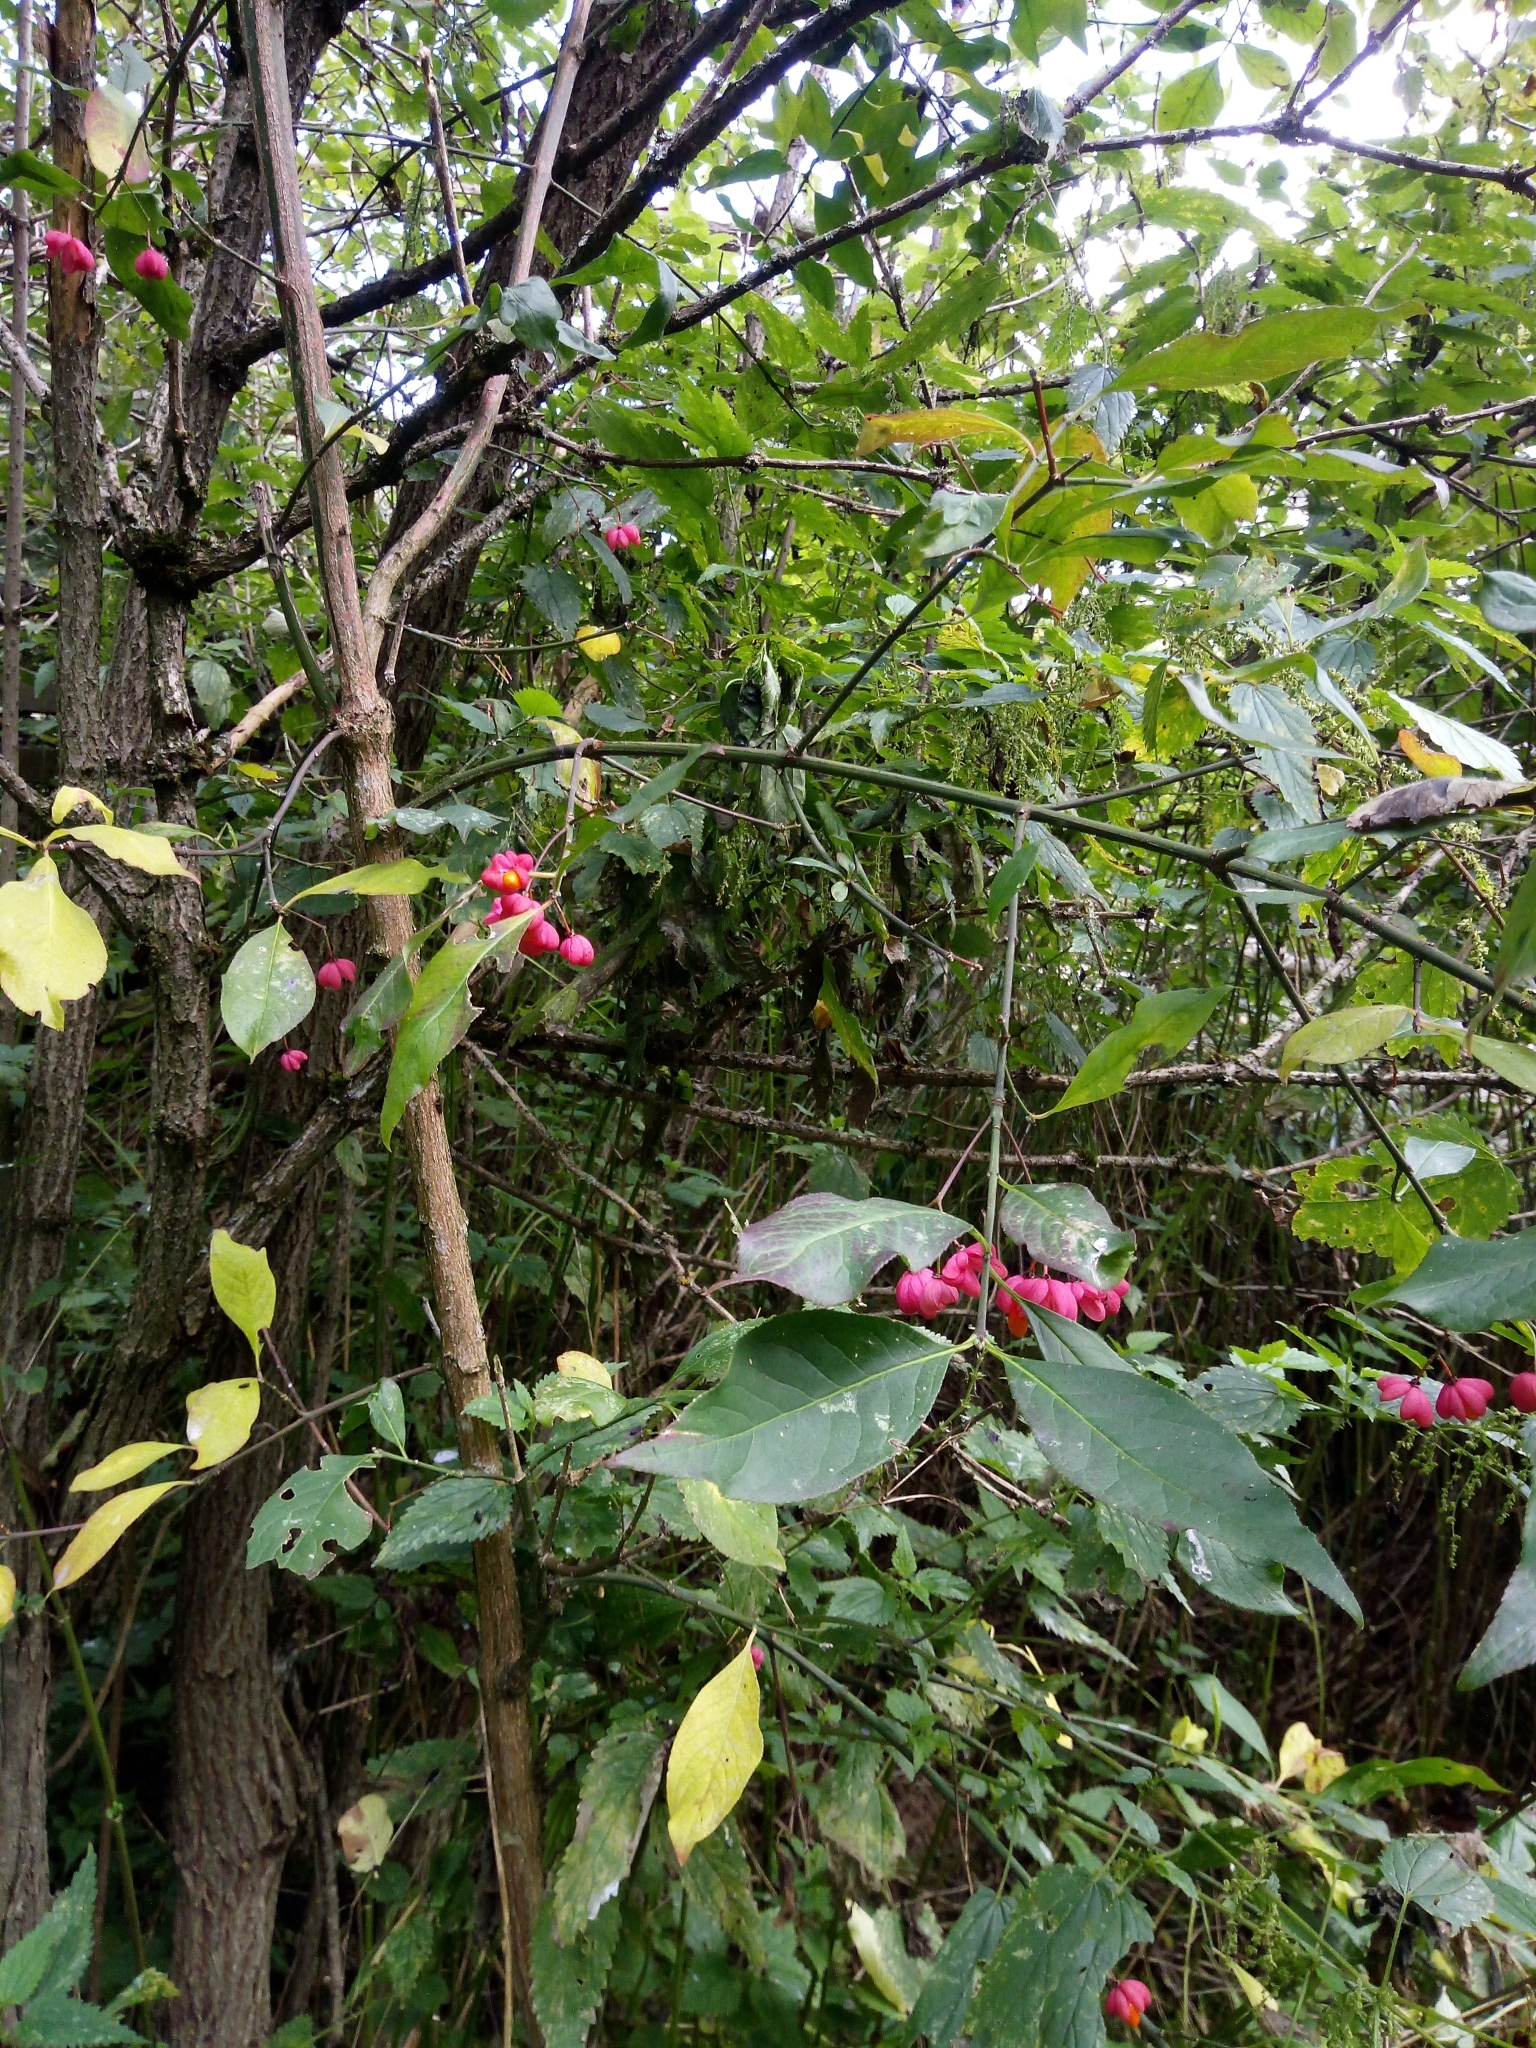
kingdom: Plantae
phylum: Tracheophyta
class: Magnoliopsida
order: Celastrales
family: Celastraceae
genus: Euonymus
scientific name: Euonymus europaeus
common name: Spindle
